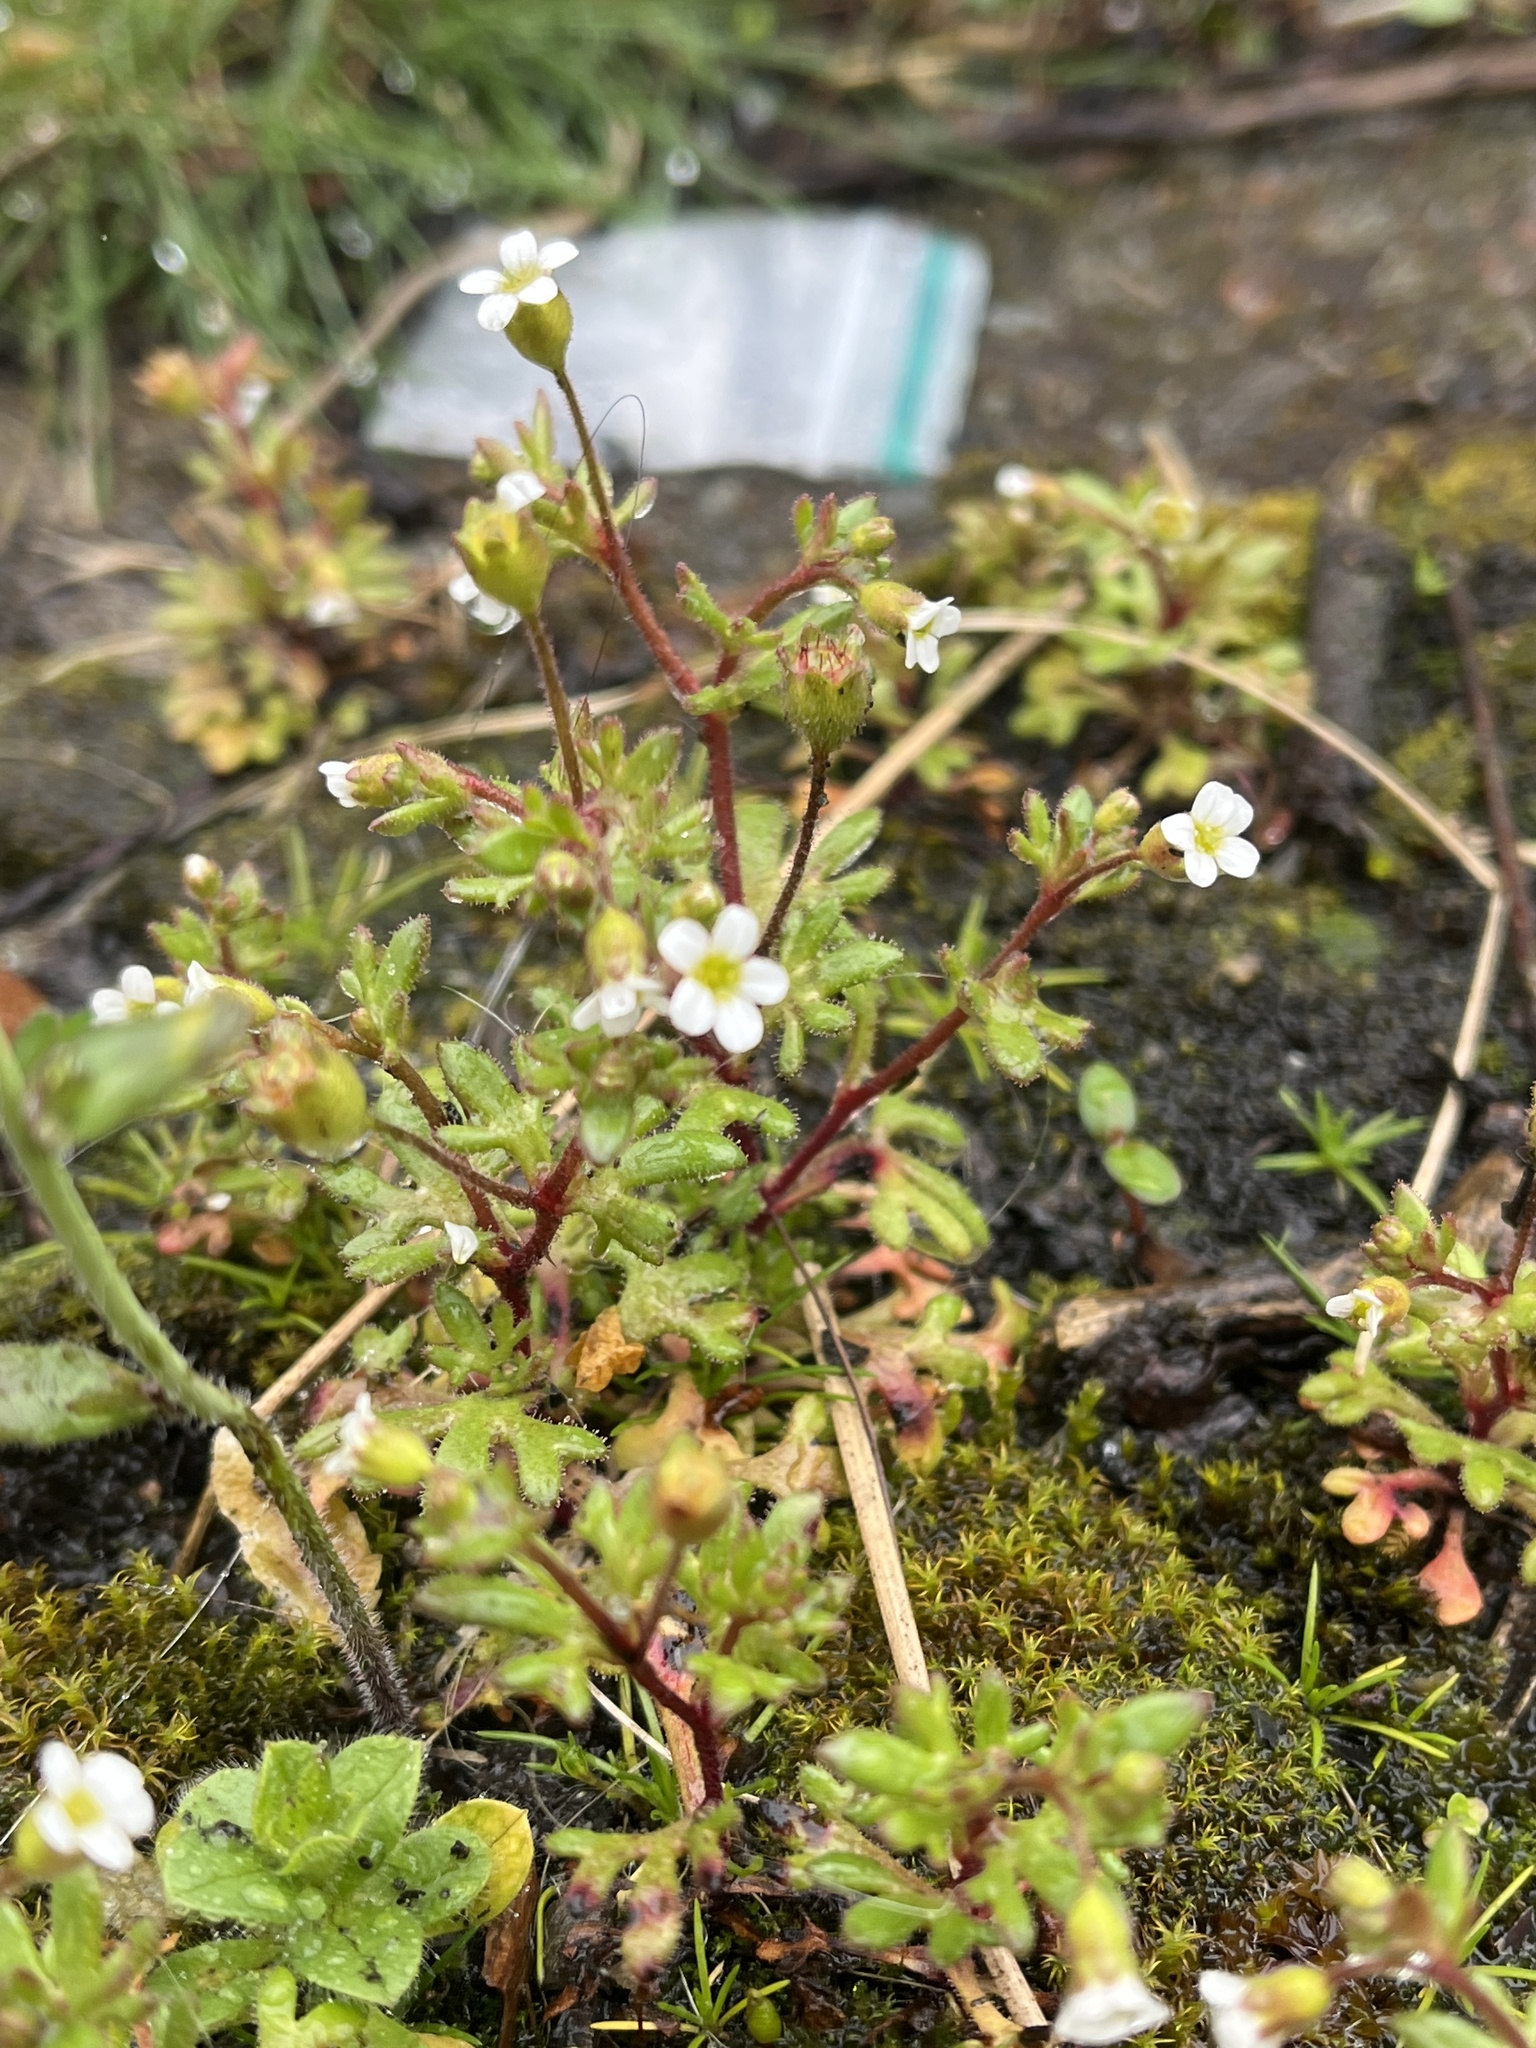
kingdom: Plantae
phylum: Tracheophyta
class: Magnoliopsida
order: Saxifragales
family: Saxifragaceae
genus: Saxifraga
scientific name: Saxifraga tridactylites
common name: Rue-leaved saxifrage
